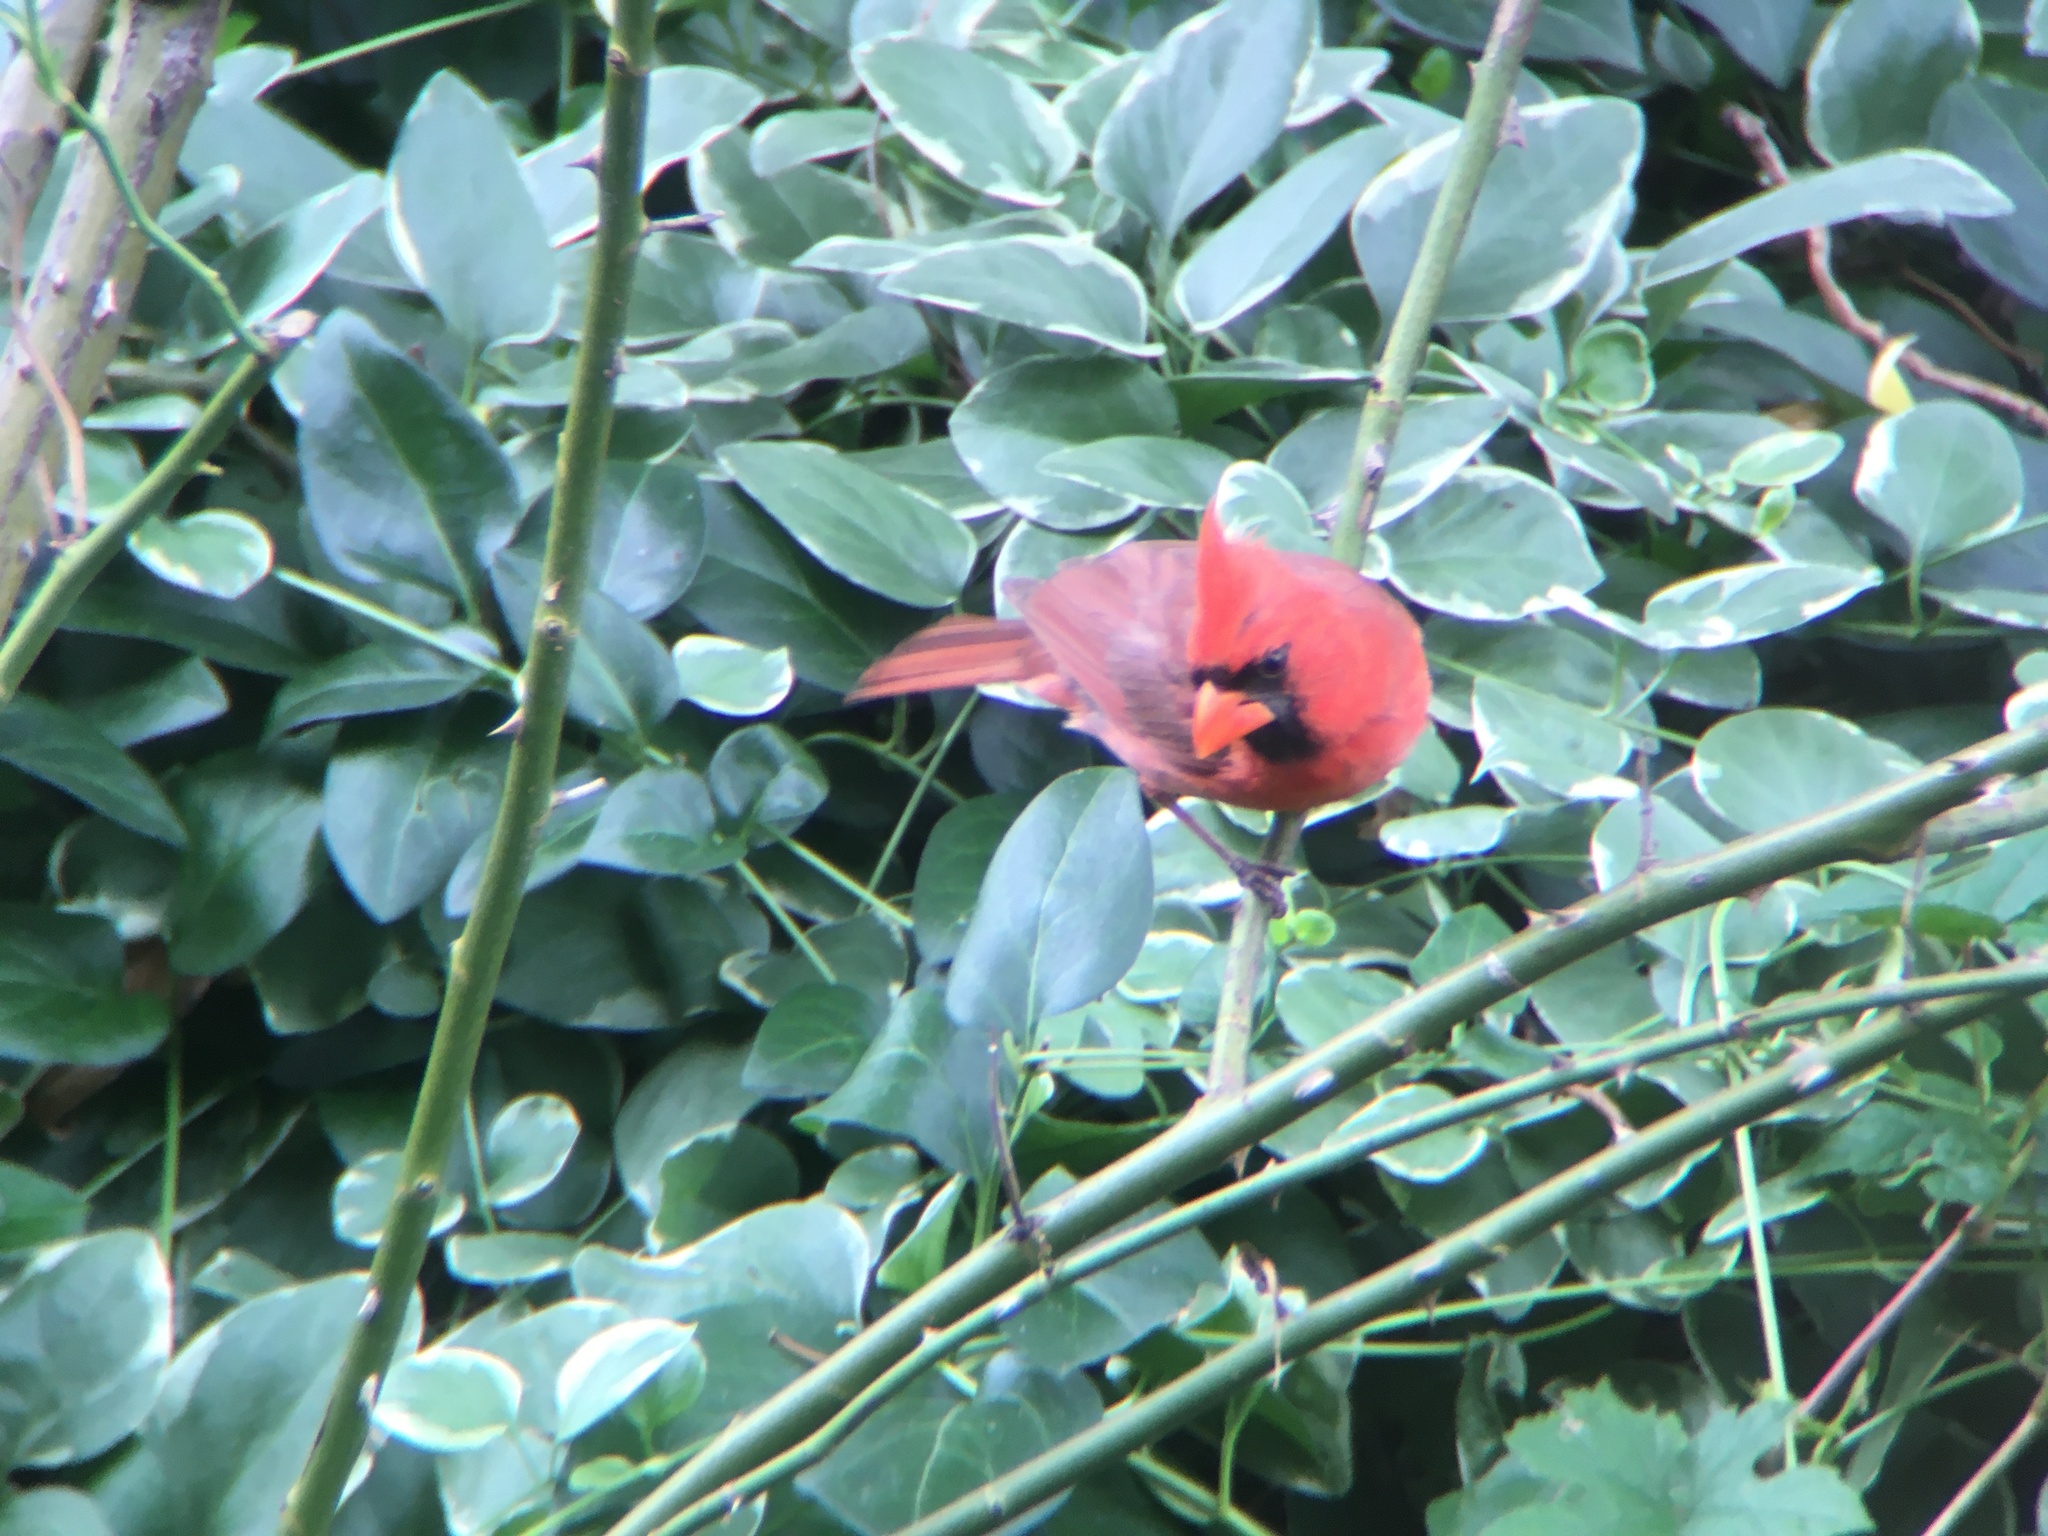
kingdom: Animalia
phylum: Chordata
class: Aves
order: Passeriformes
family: Cardinalidae
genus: Cardinalis
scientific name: Cardinalis cardinalis
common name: Northern cardinal
